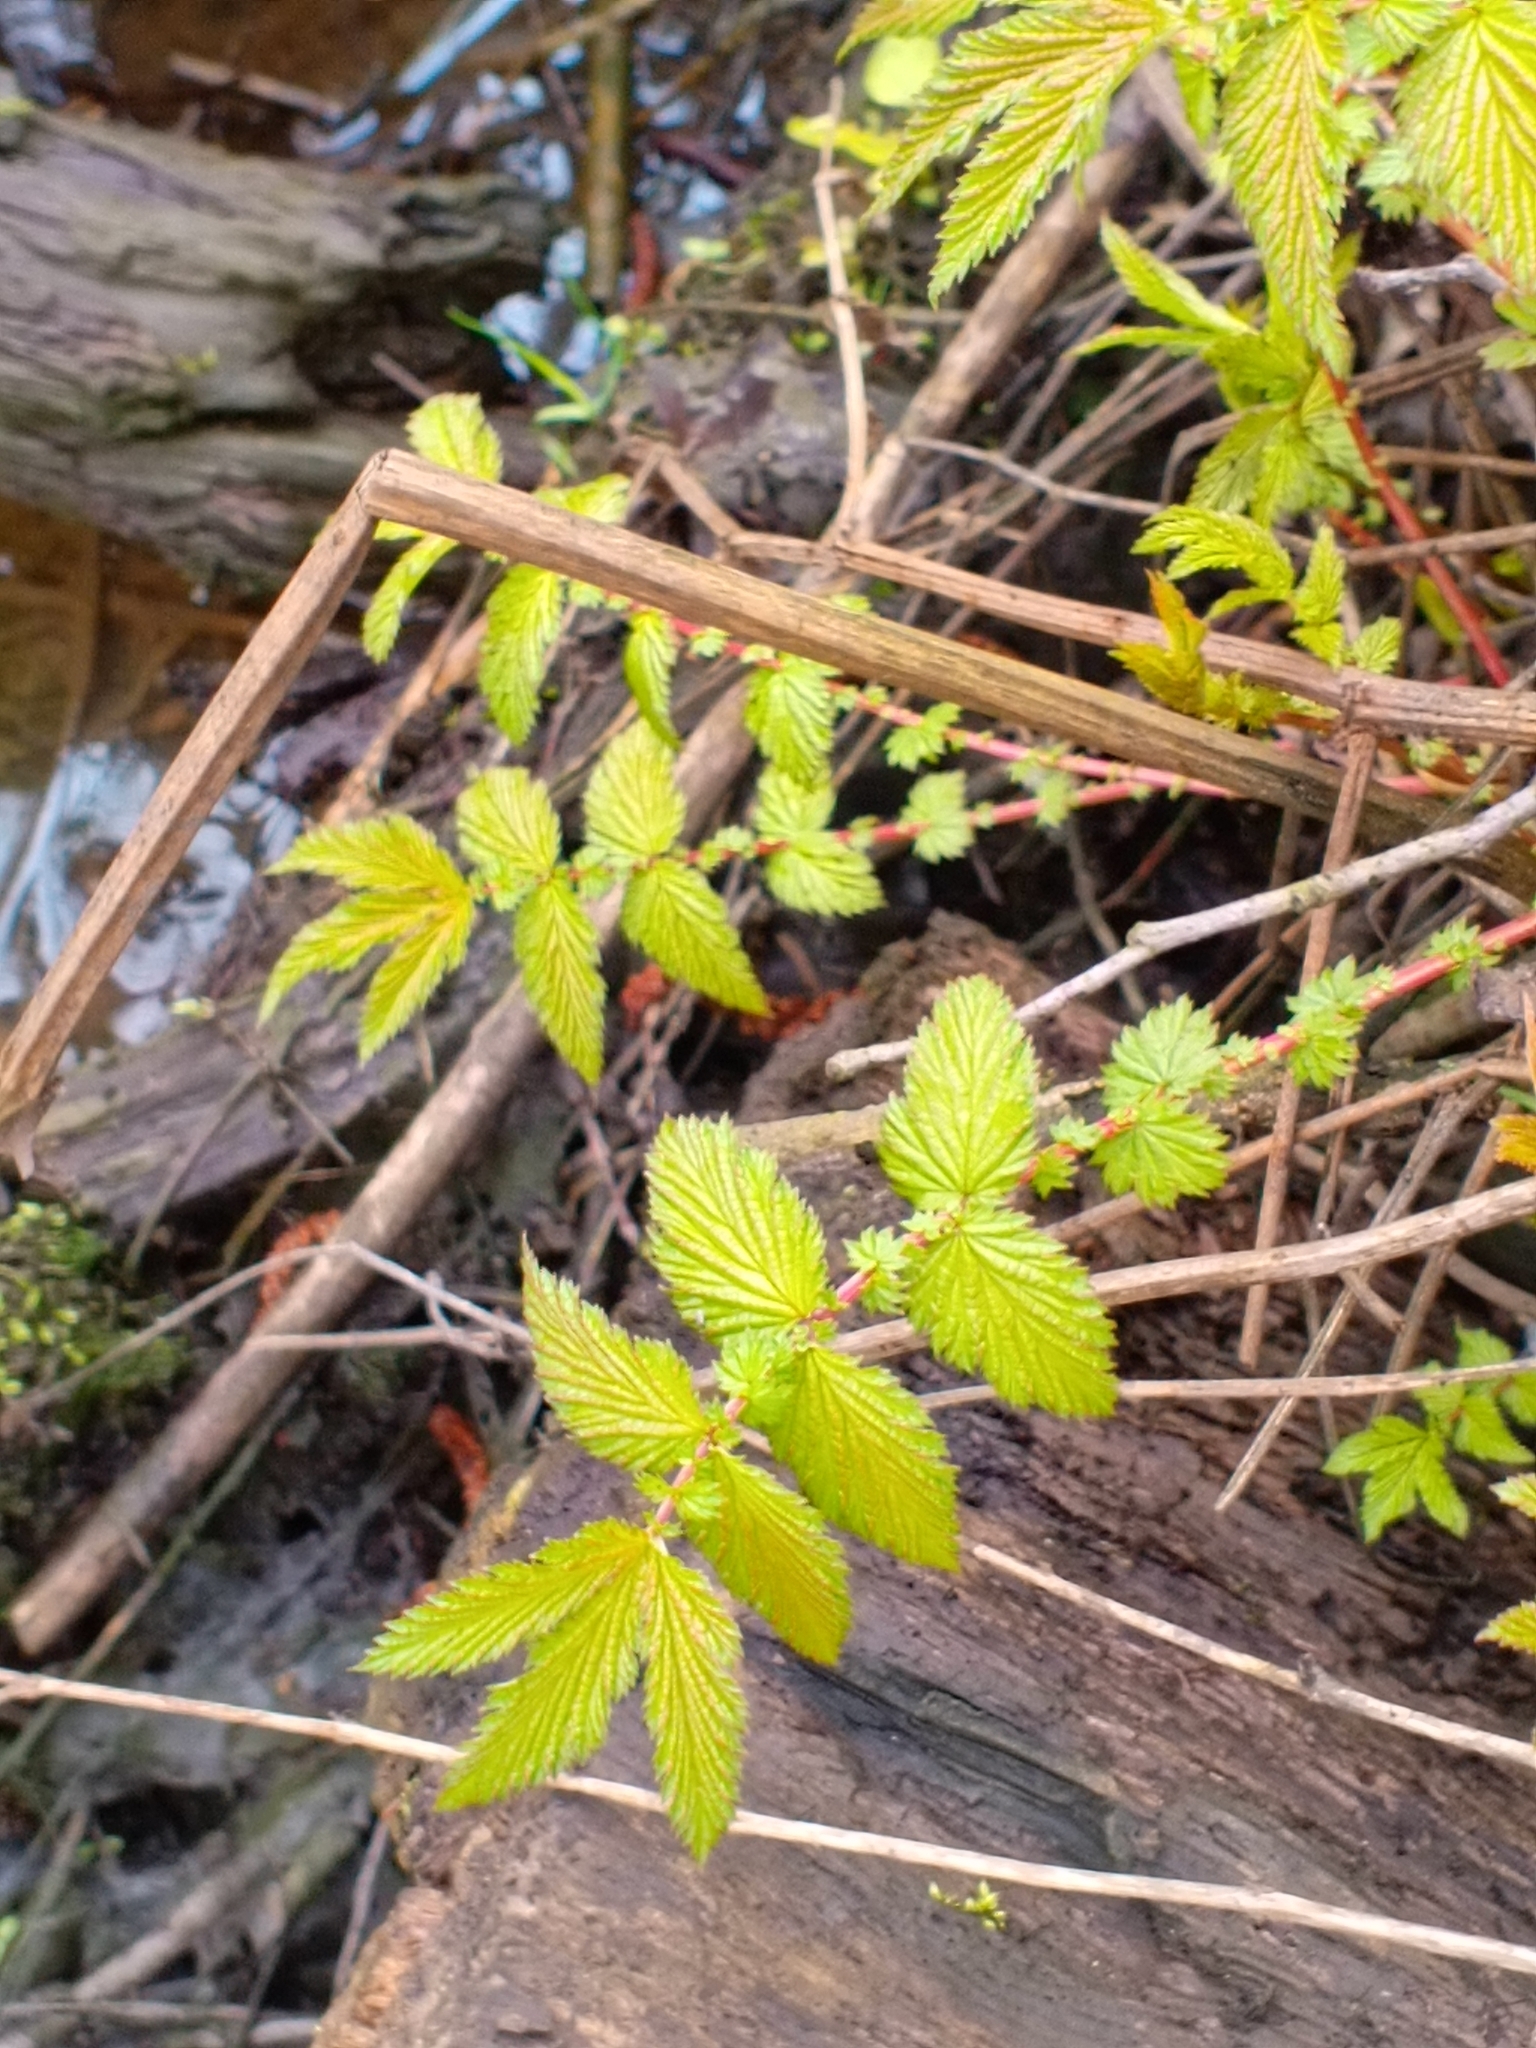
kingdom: Plantae
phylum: Tracheophyta
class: Magnoliopsida
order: Rosales
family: Rosaceae
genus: Filipendula
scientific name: Filipendula ulmaria
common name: Meadowsweet
